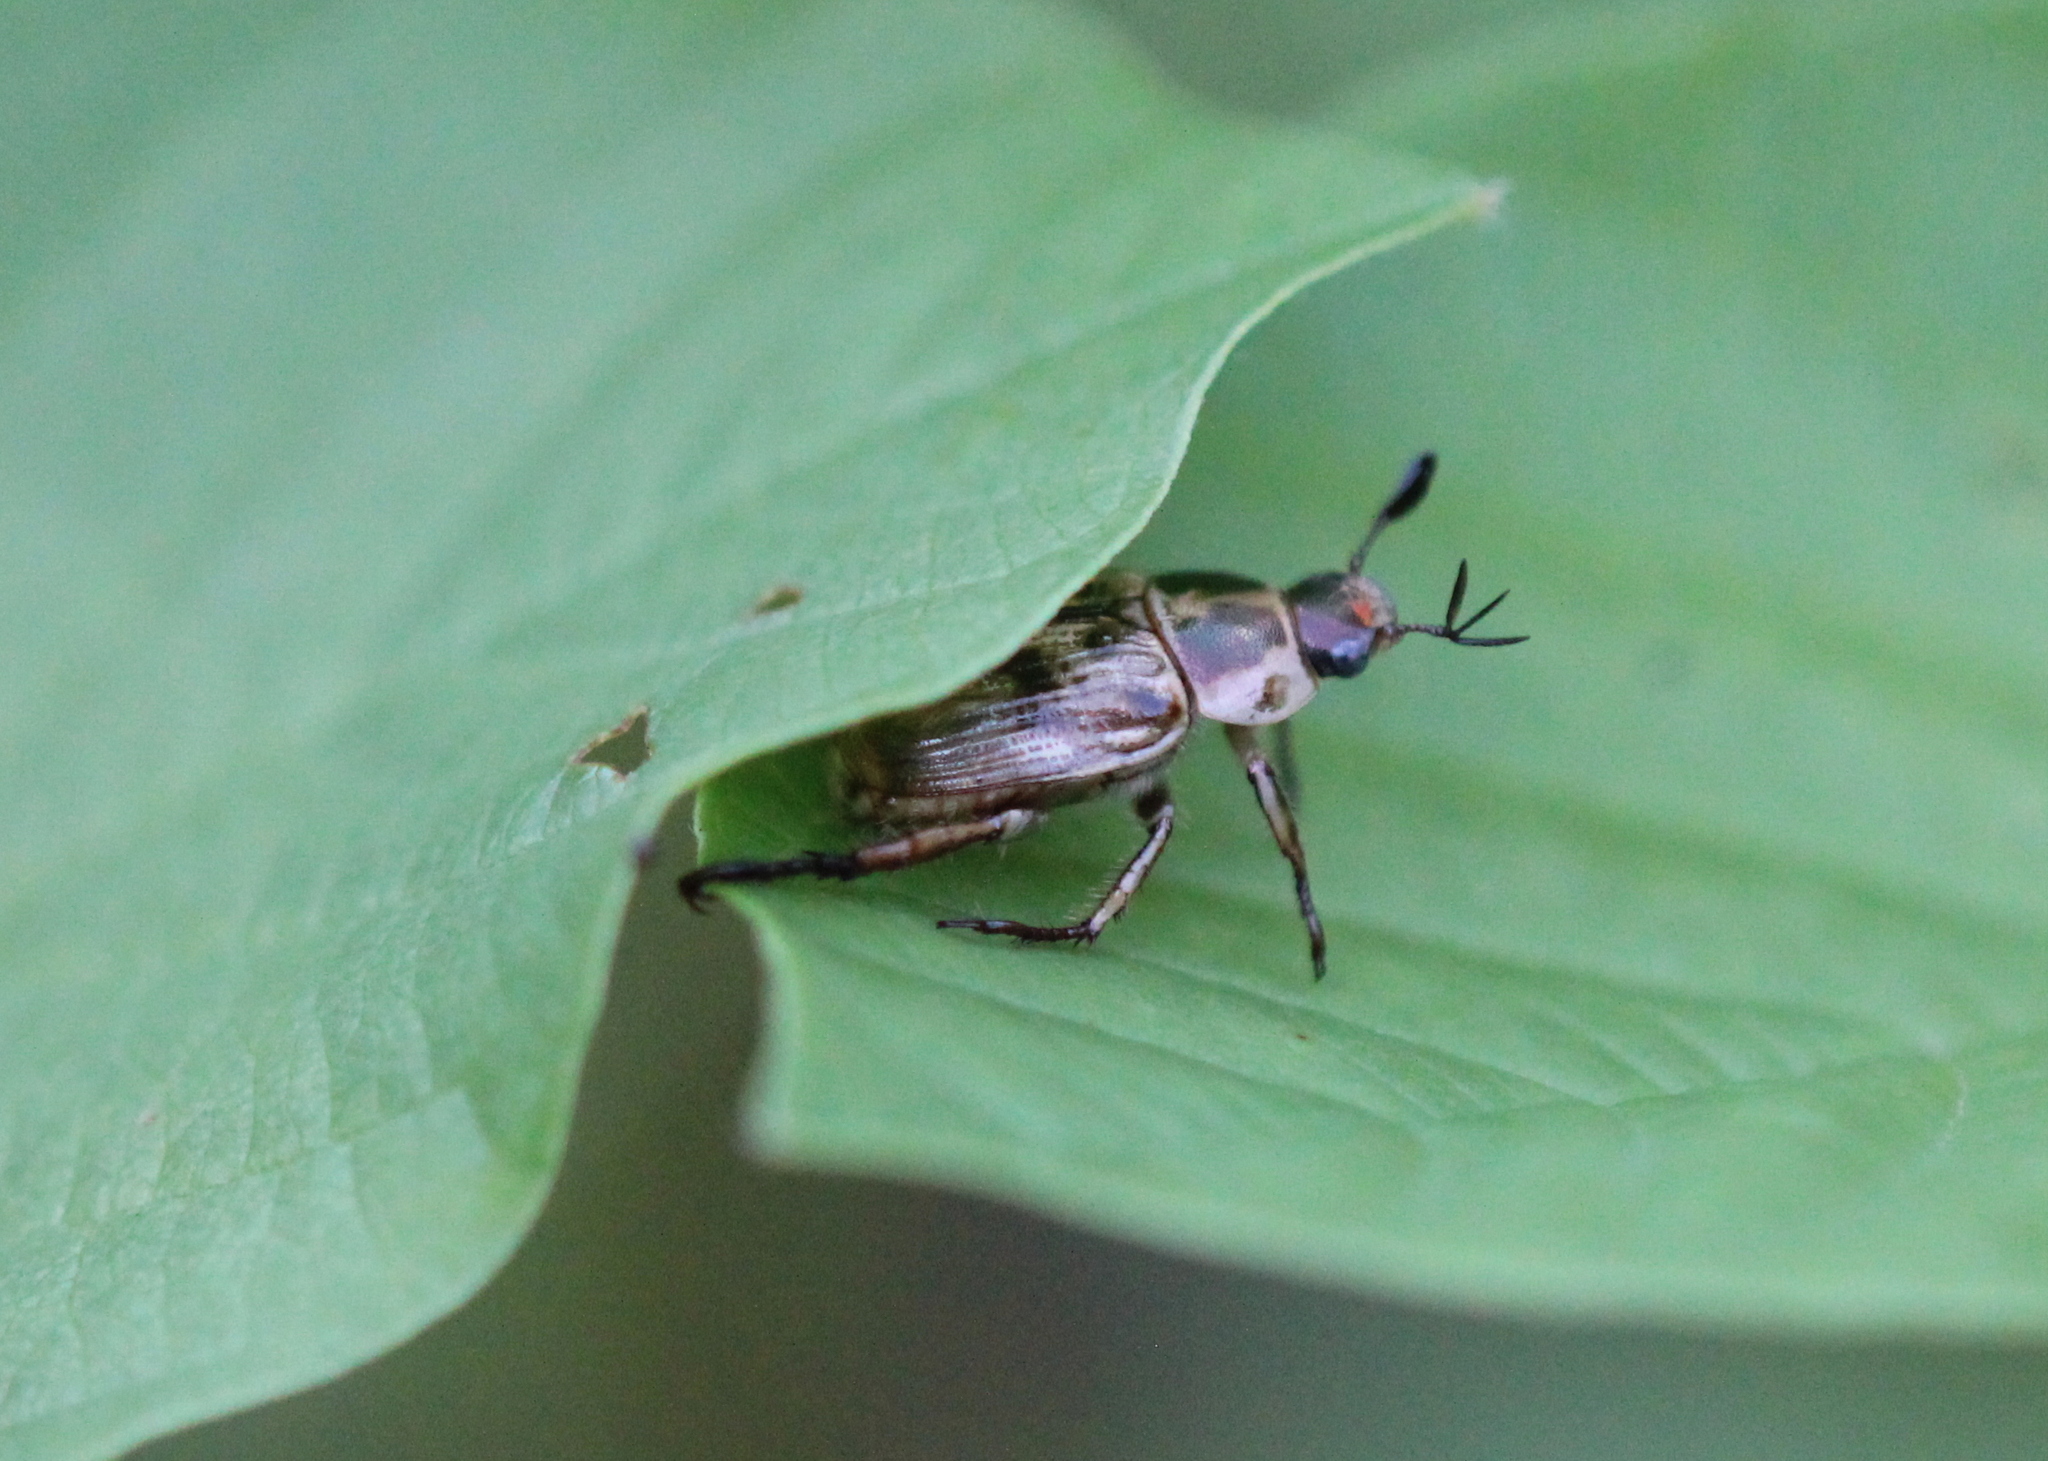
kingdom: Animalia
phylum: Arthropoda
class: Insecta
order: Coleoptera
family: Scarabaeidae
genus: Exomala
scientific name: Exomala orientalis
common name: Oriental beetle
